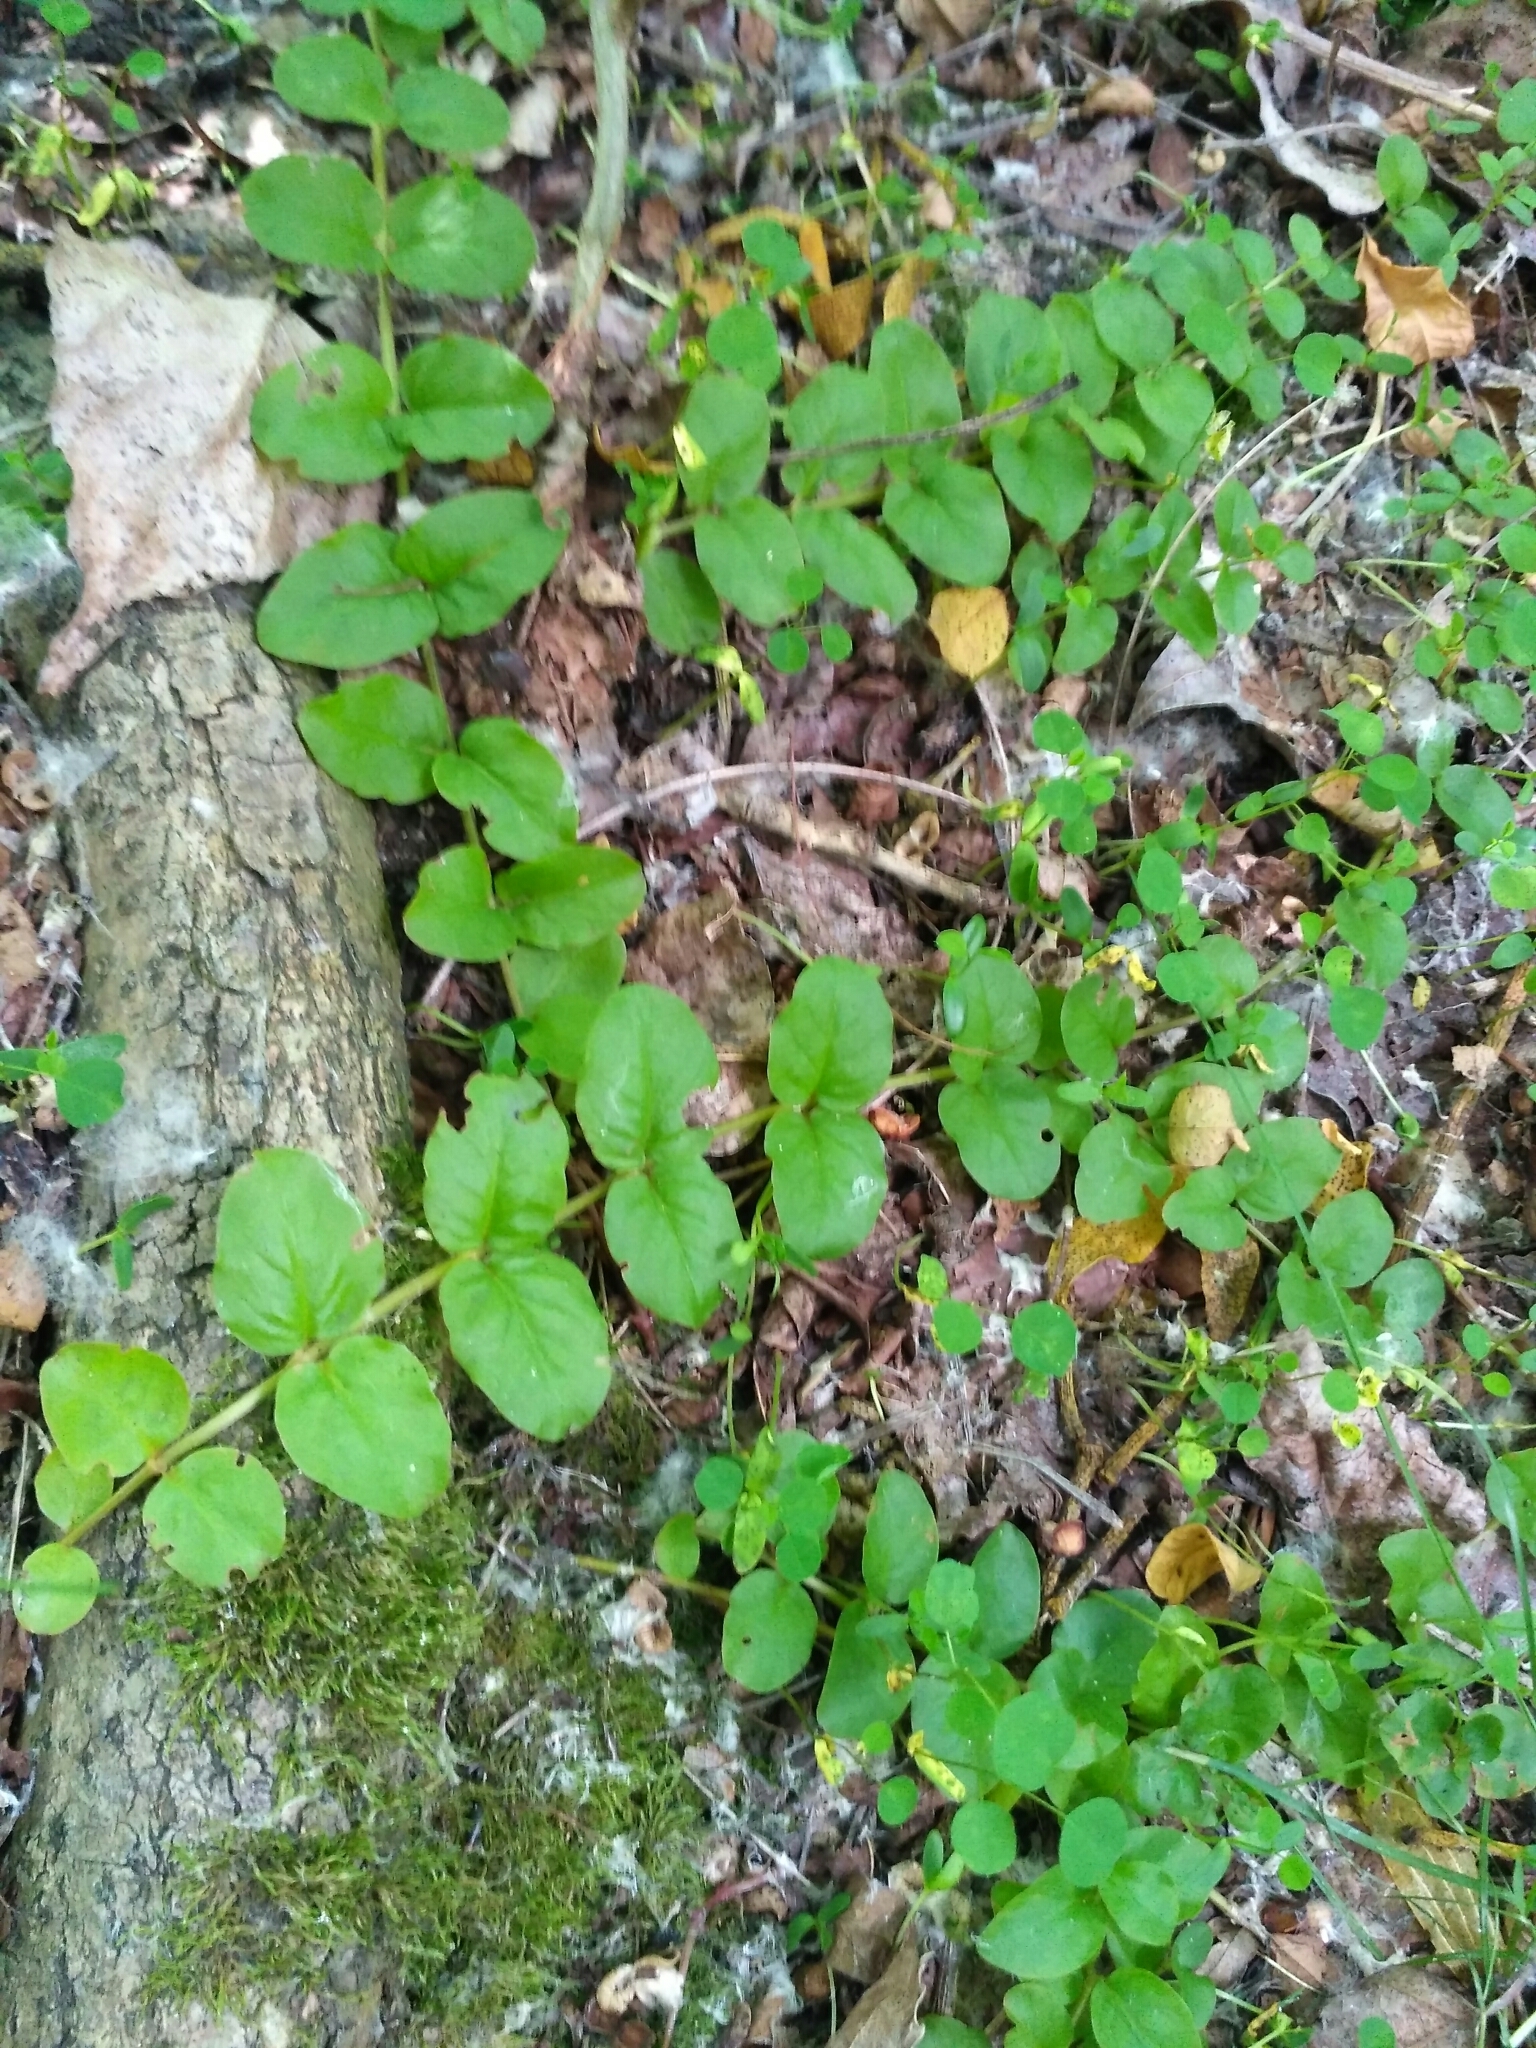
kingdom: Plantae
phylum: Tracheophyta
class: Magnoliopsida
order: Ericales
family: Primulaceae
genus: Lysimachia
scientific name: Lysimachia nummularia
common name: Moneywort
